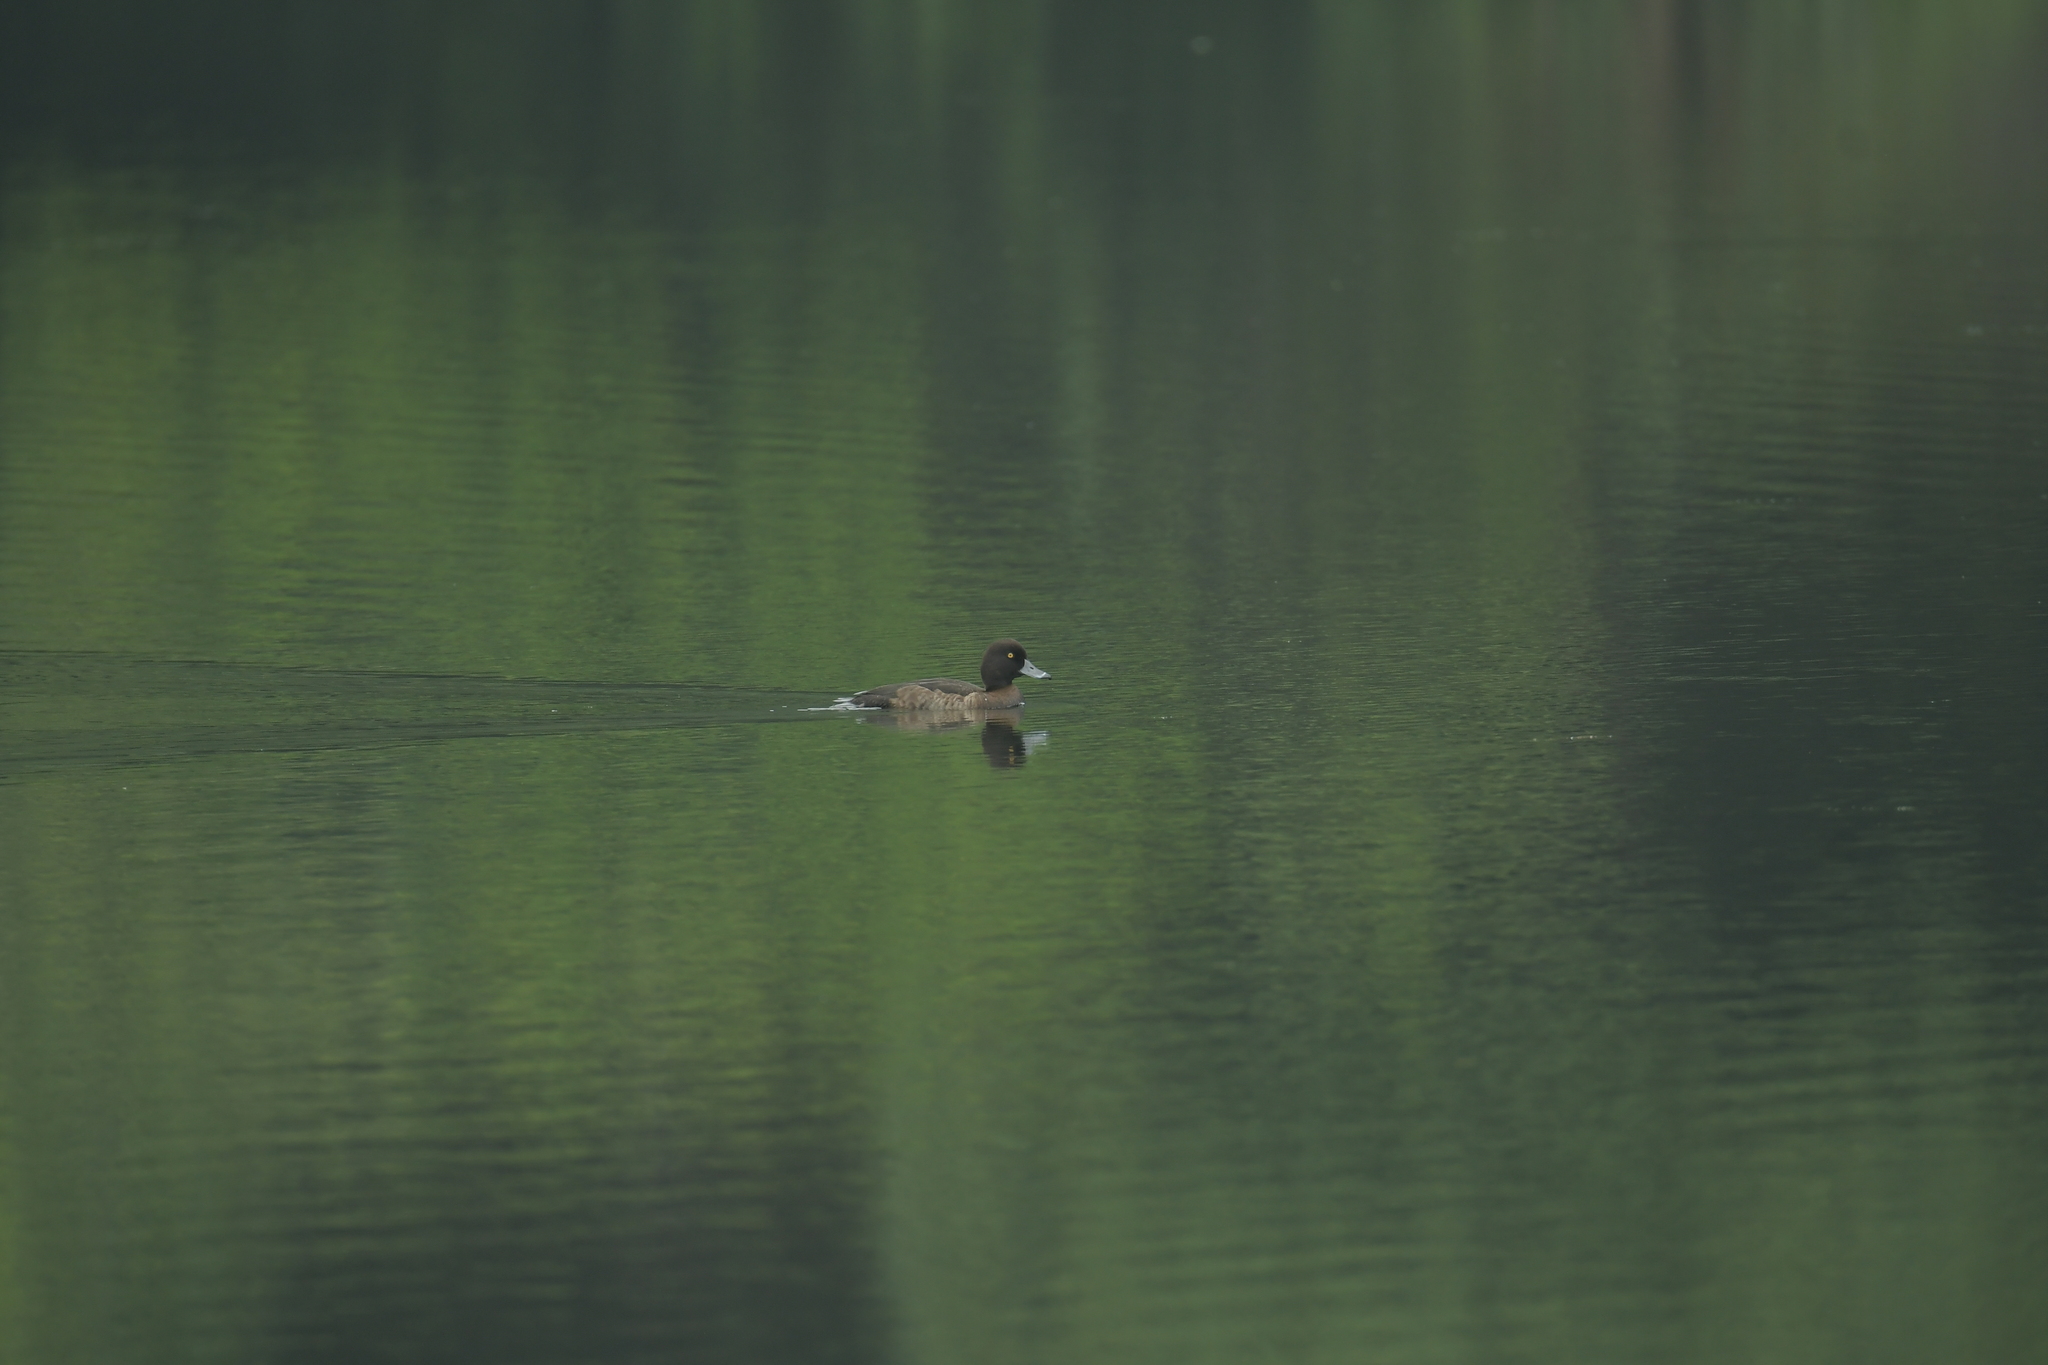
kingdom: Animalia
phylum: Chordata
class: Aves
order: Anseriformes
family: Anatidae
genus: Aythya
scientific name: Aythya fuligula
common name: Tufted duck
